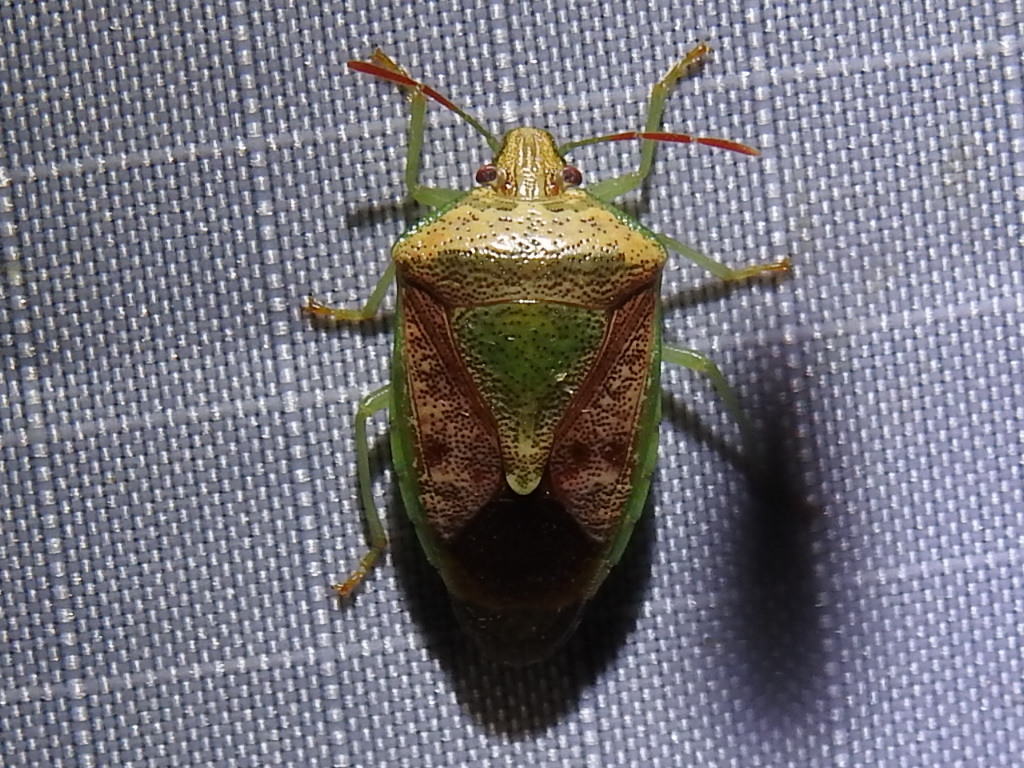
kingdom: Animalia
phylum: Arthropoda
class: Insecta
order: Hemiptera
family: Pentatomidae
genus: Banasa
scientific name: Banasa subcarnea
